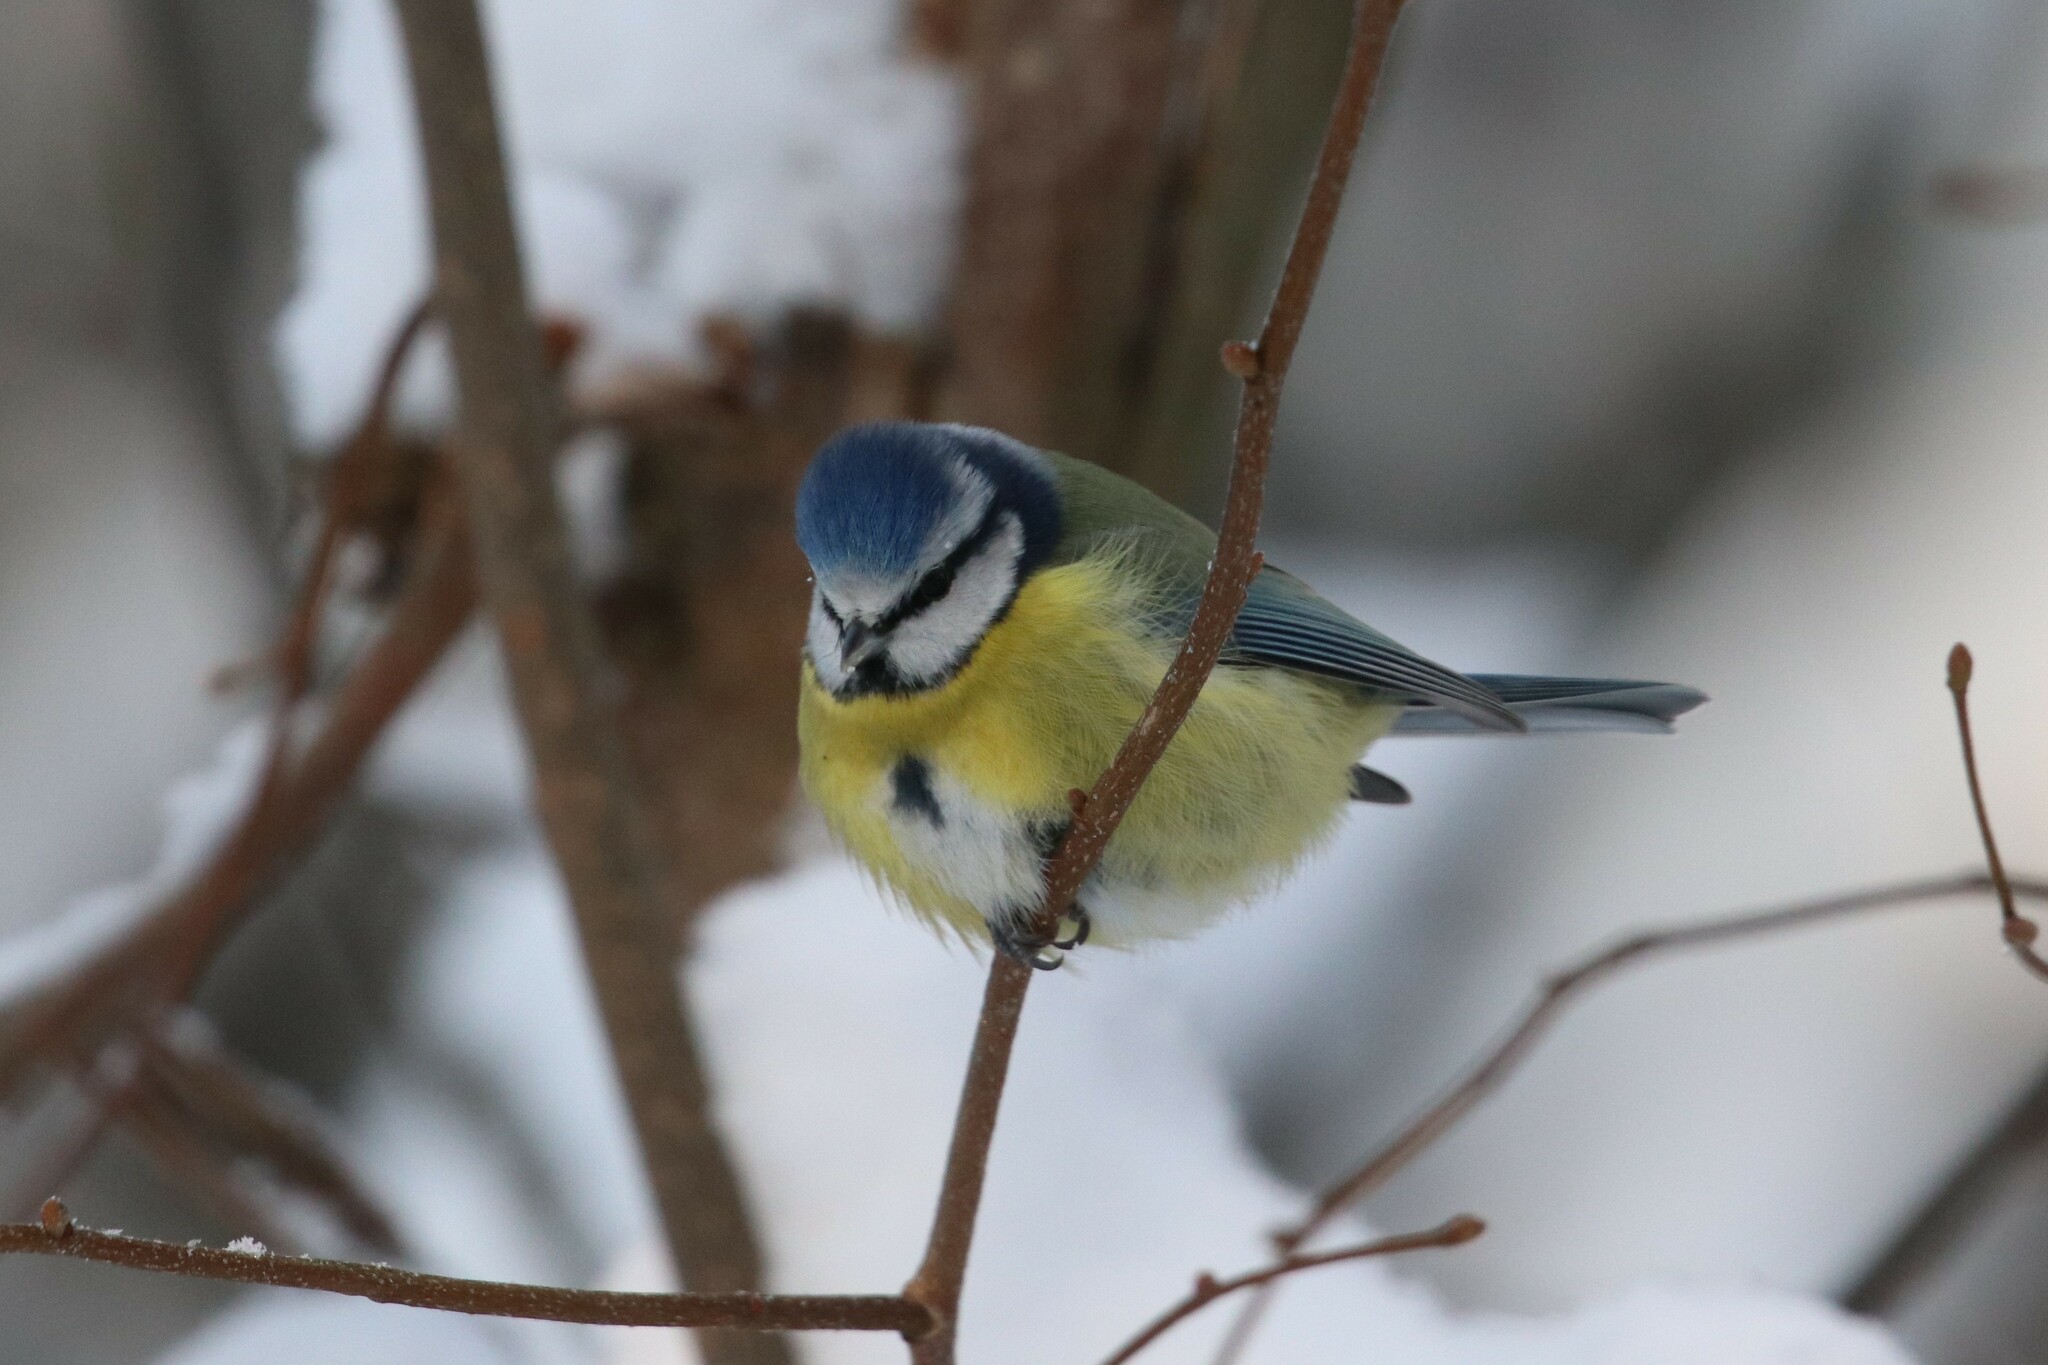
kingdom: Animalia
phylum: Chordata
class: Aves
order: Passeriformes
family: Paridae
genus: Cyanistes
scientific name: Cyanistes caeruleus
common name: Eurasian blue tit
